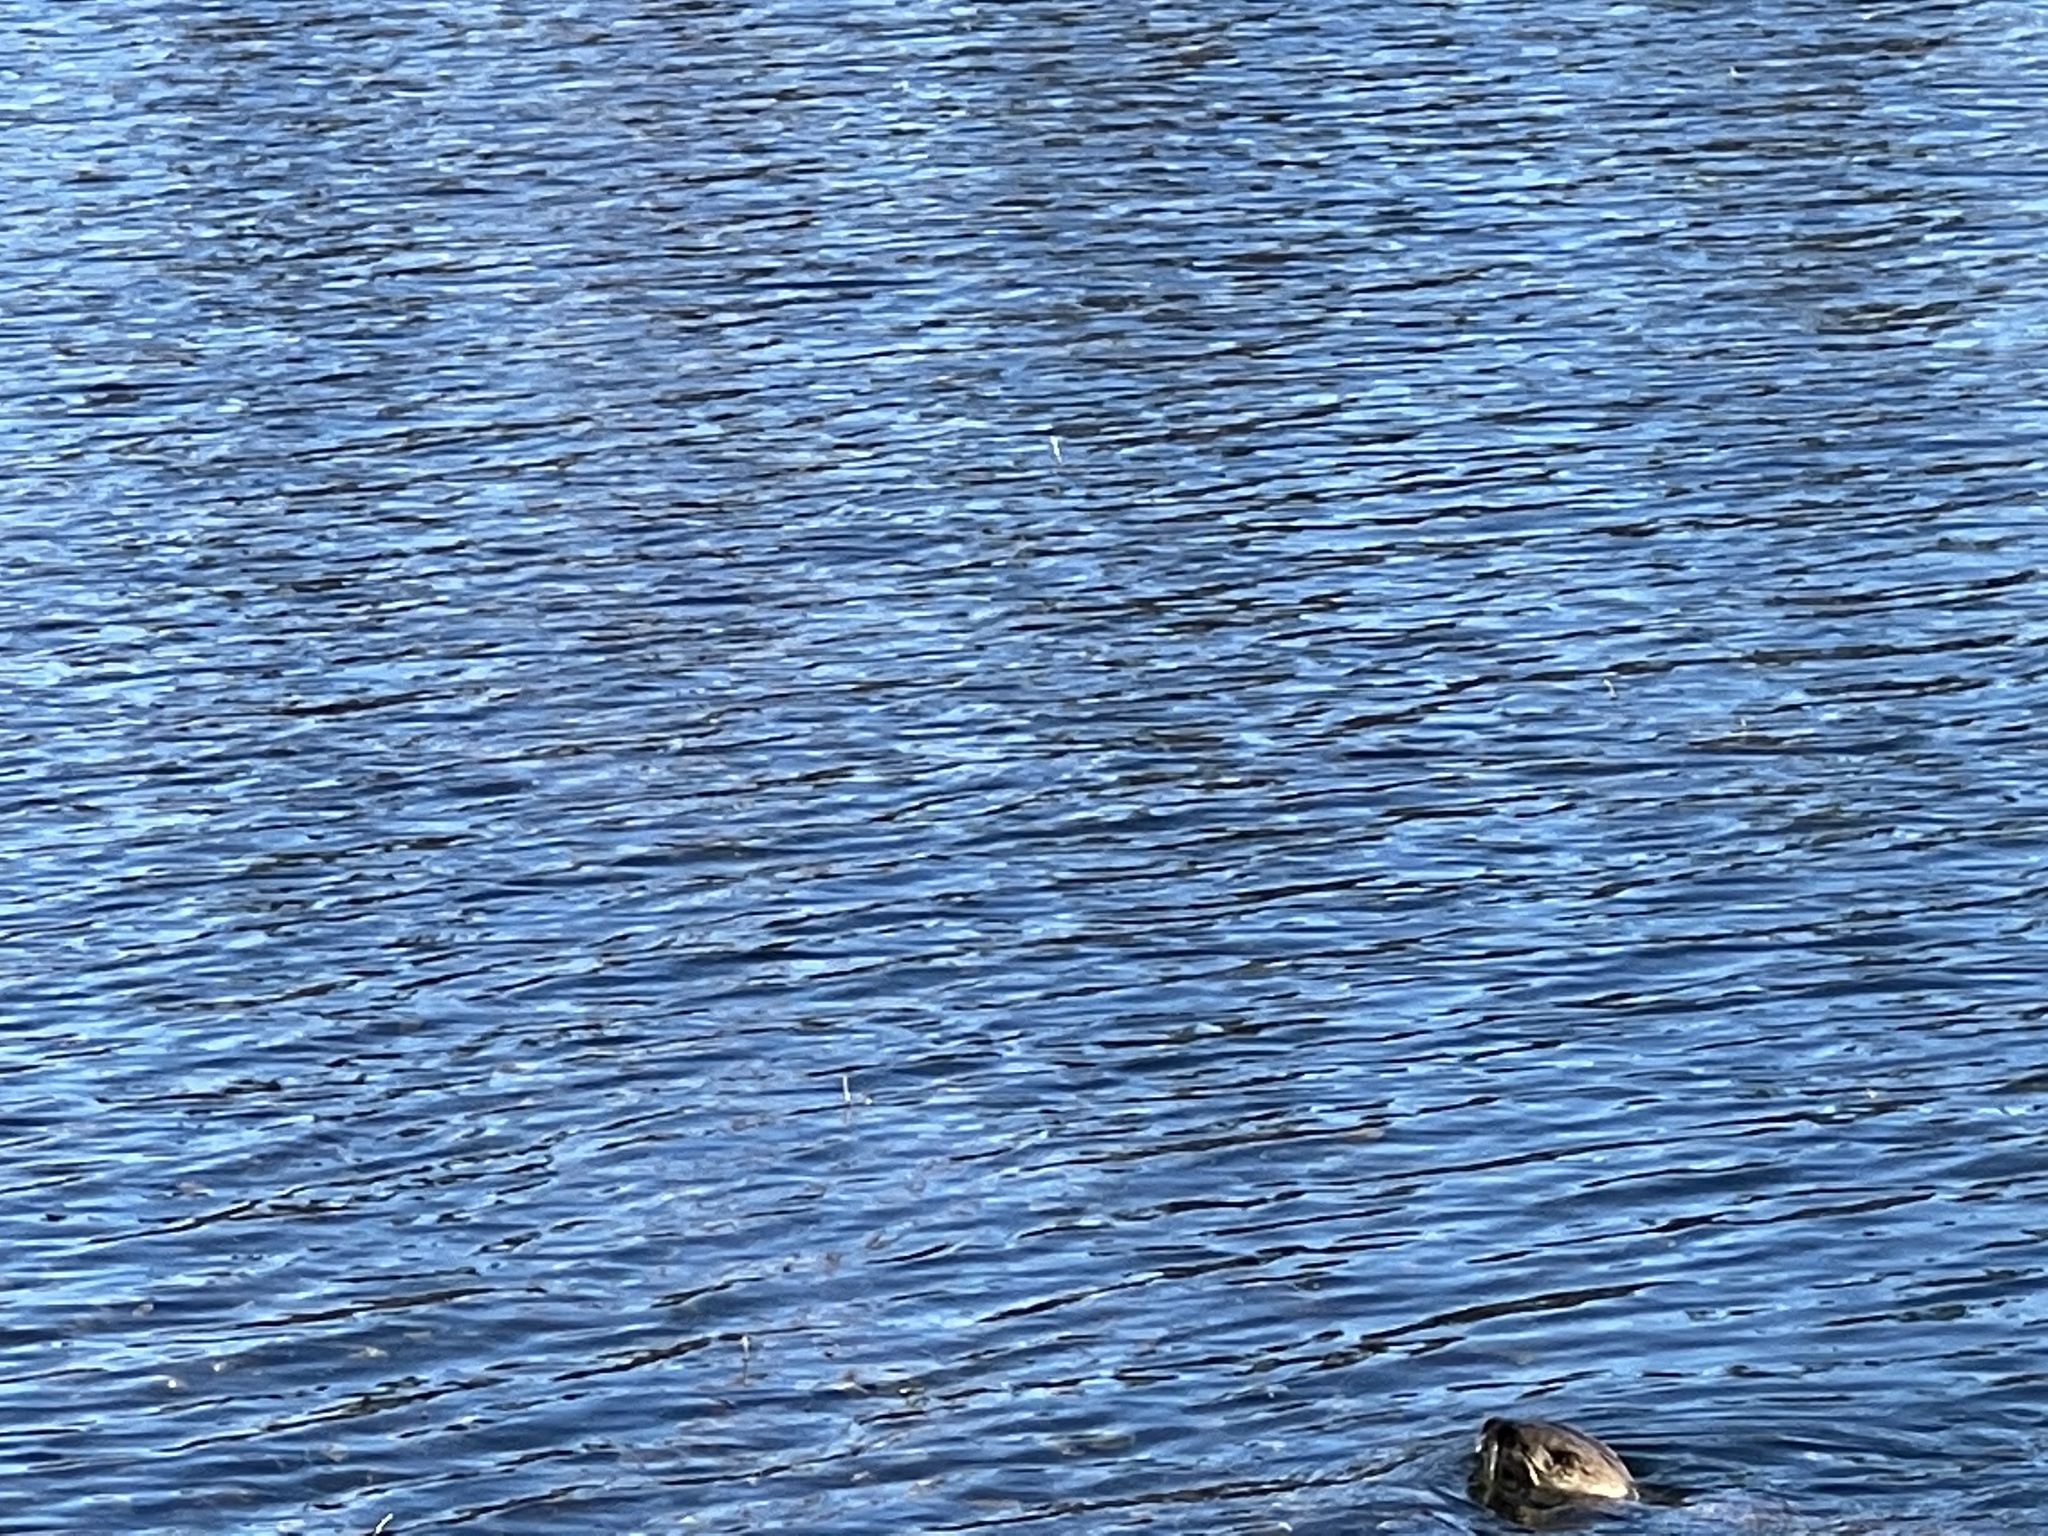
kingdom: Animalia
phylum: Chordata
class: Mammalia
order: Carnivora
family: Mustelidae
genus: Lontra
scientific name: Lontra canadensis
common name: North american river otter
